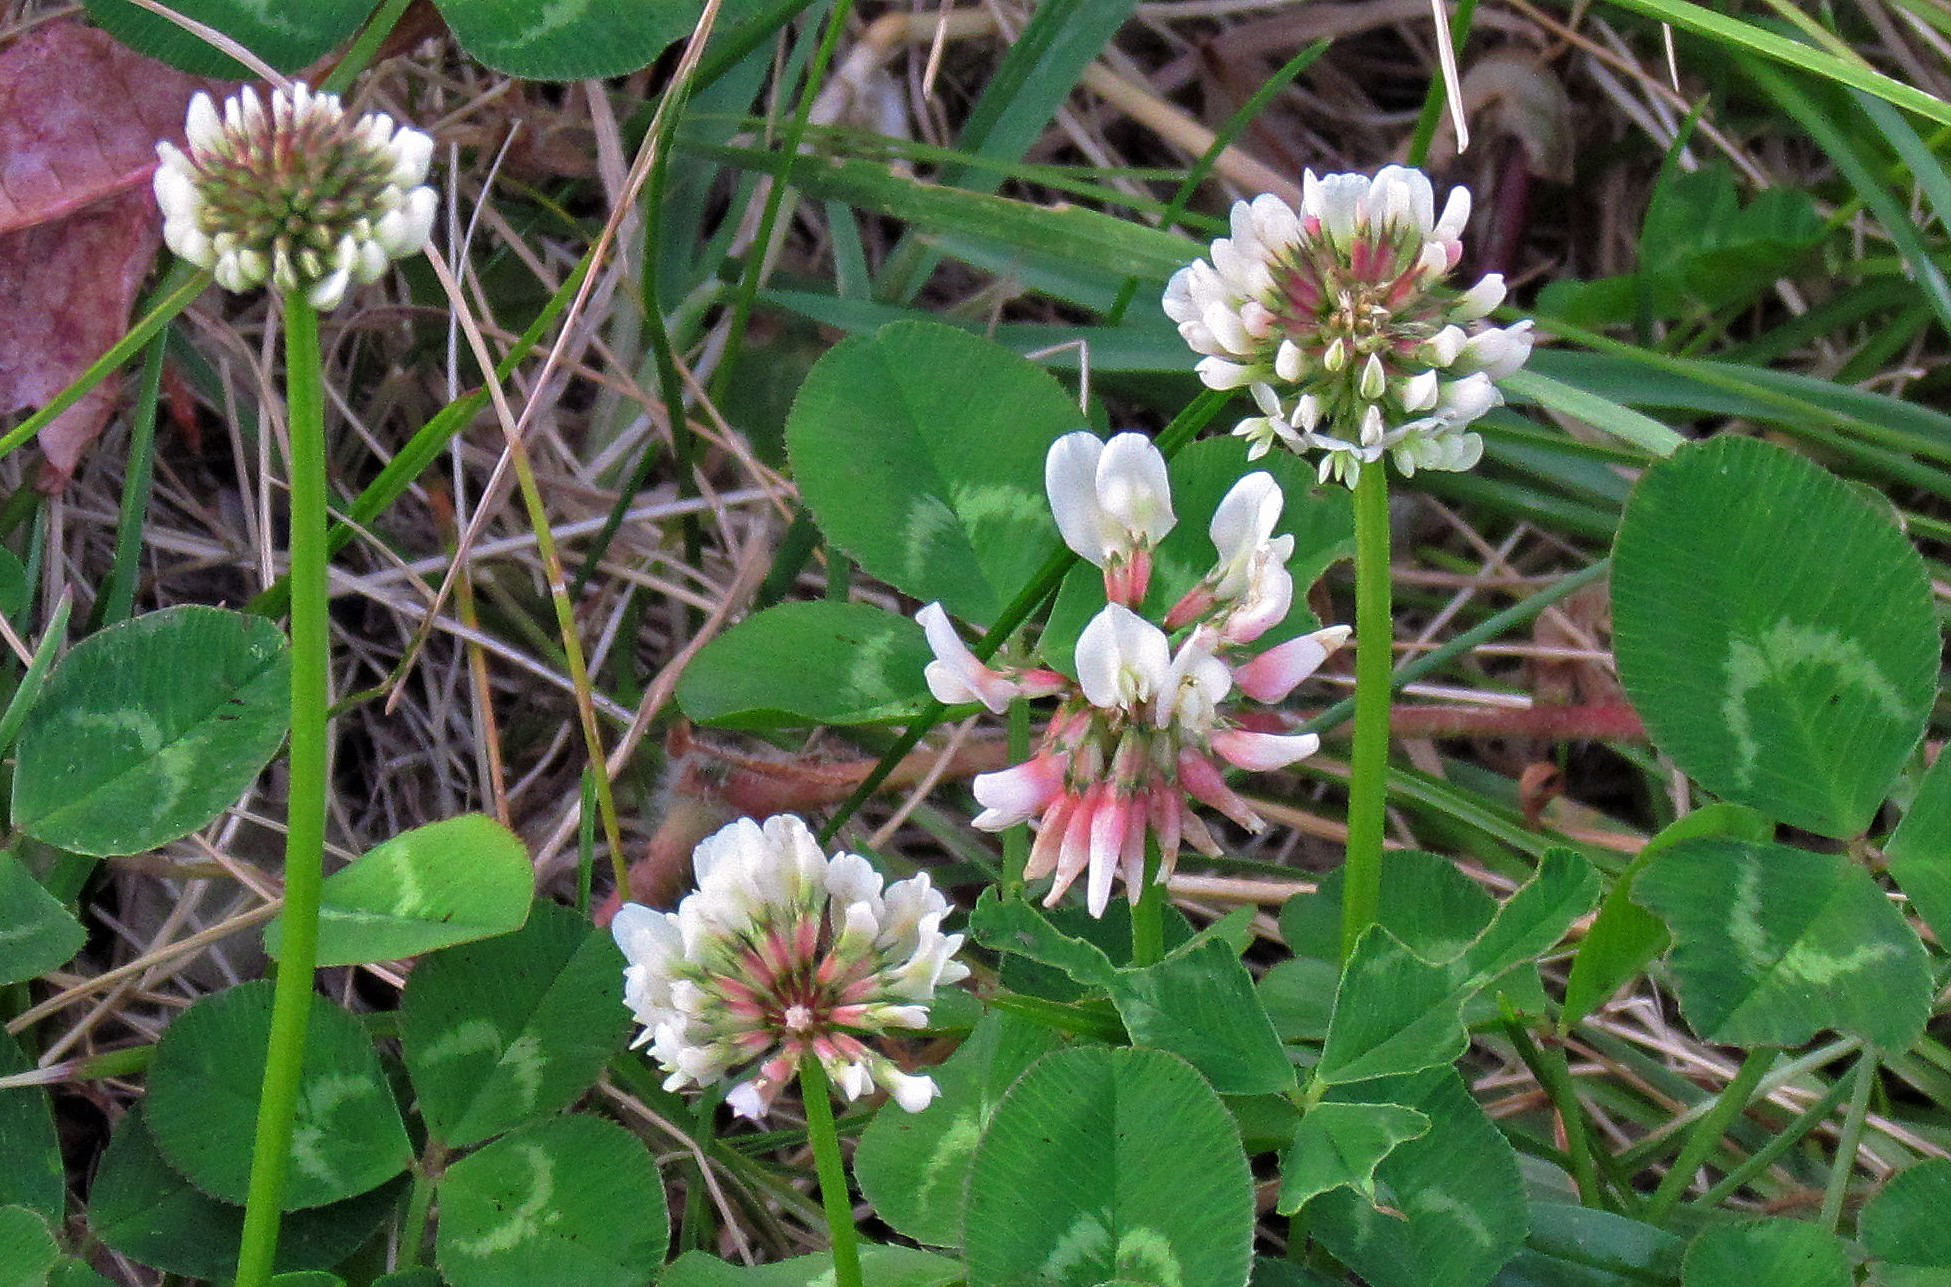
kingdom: Plantae
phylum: Tracheophyta
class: Magnoliopsida
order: Fabales
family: Fabaceae
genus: Trifolium
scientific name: Trifolium repens
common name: White clover
